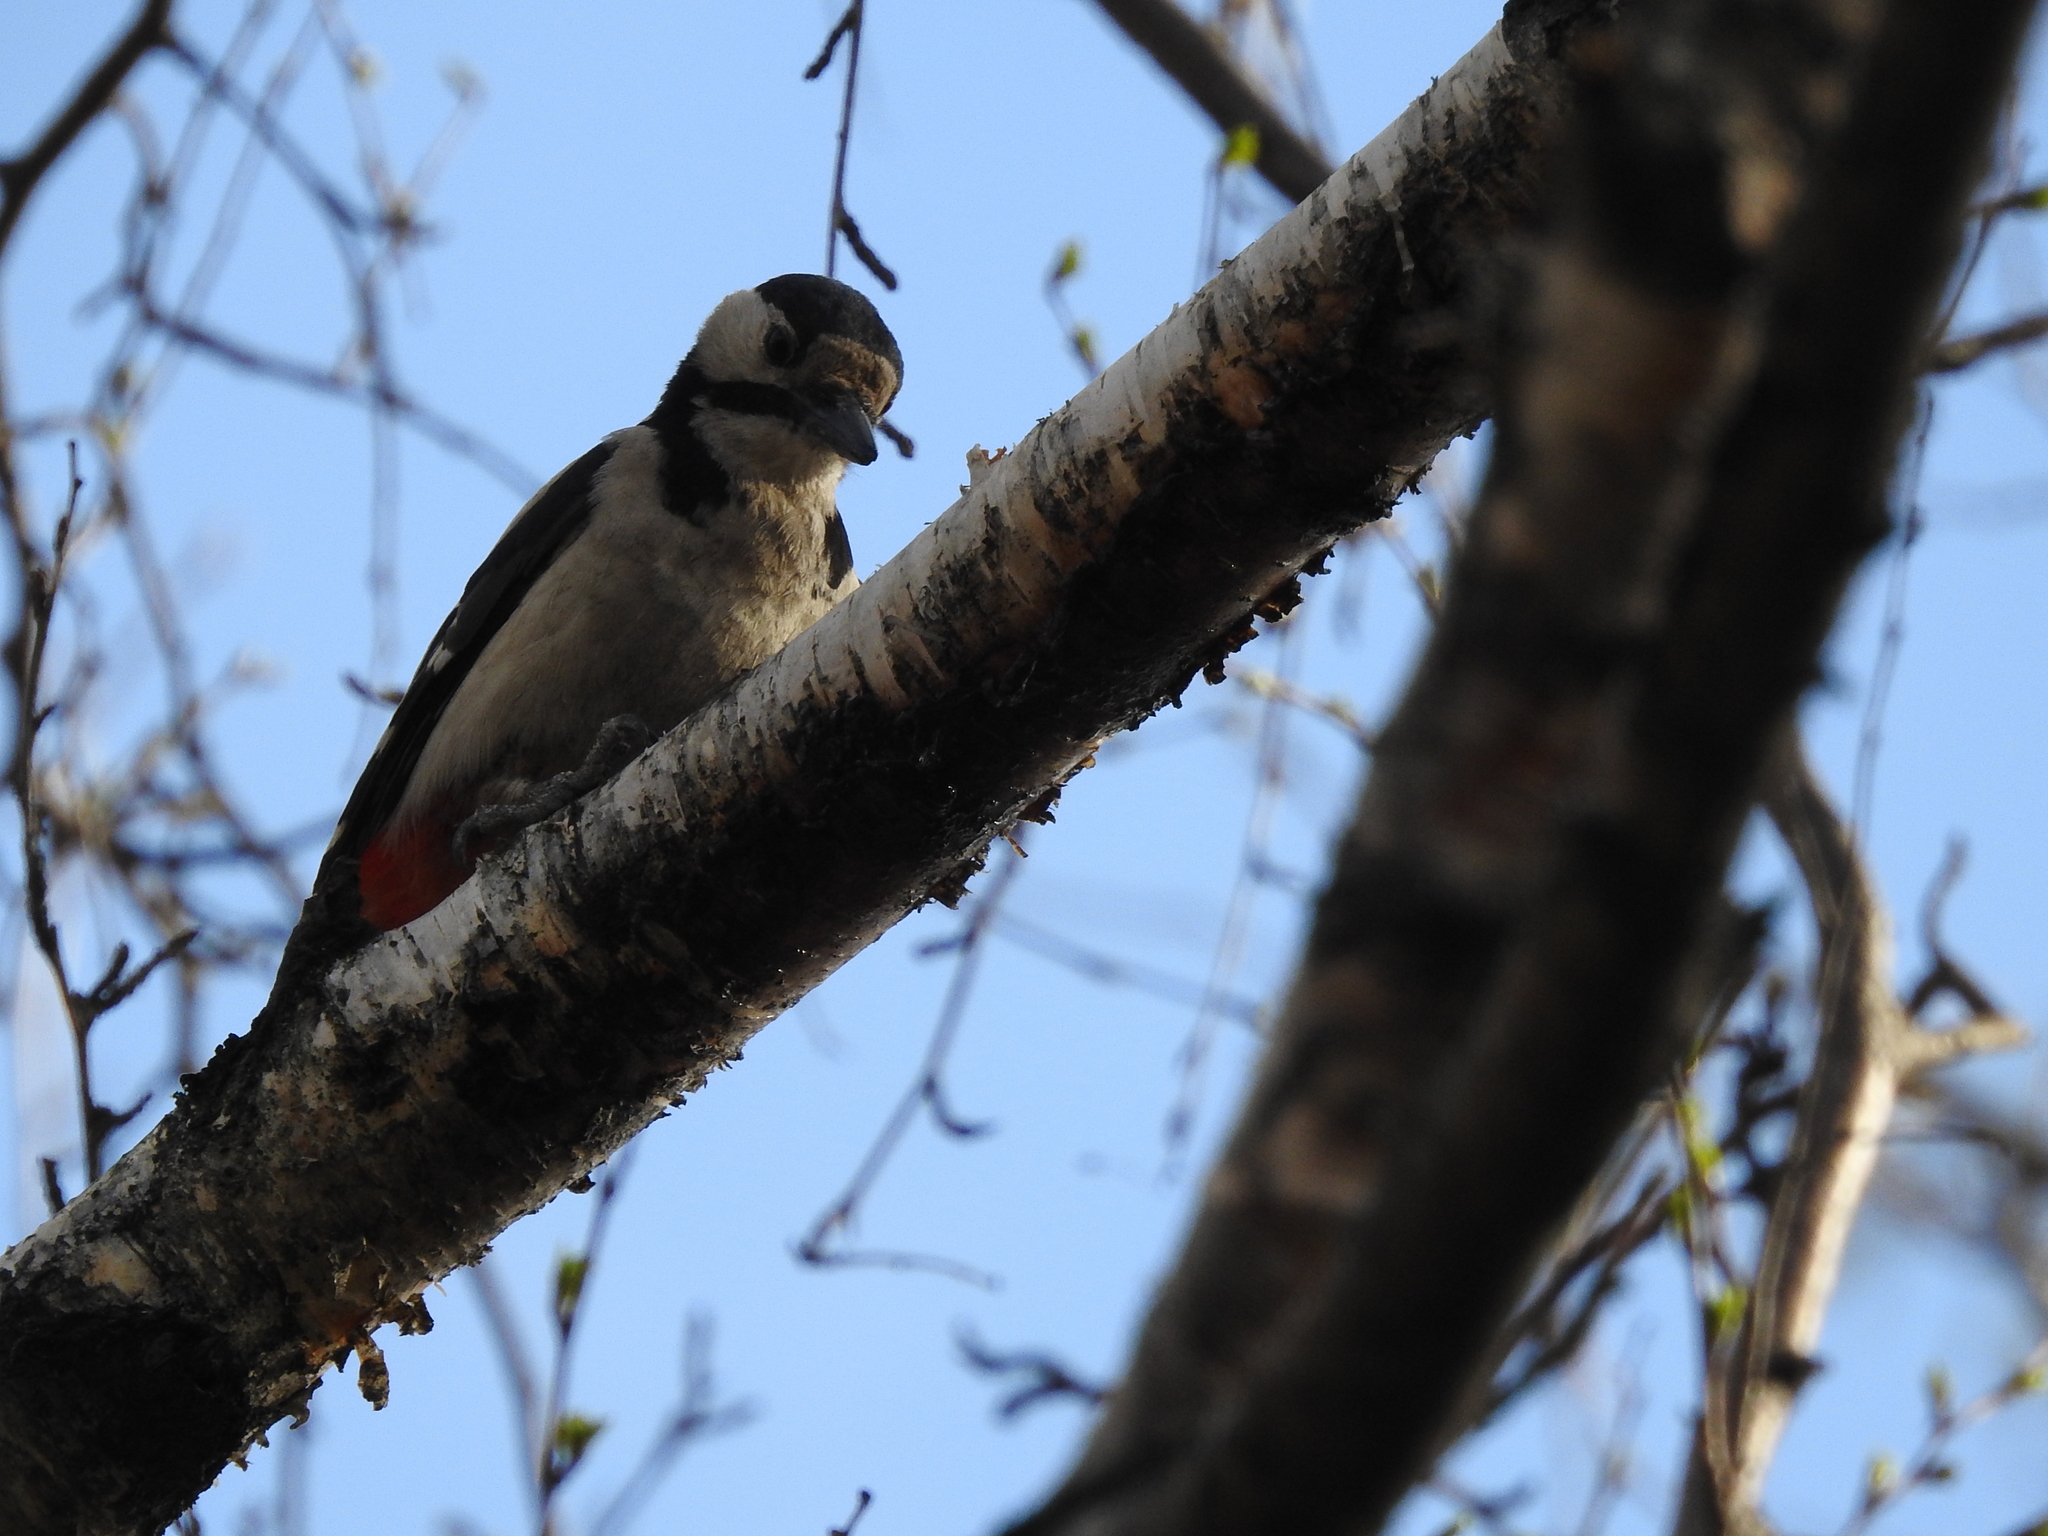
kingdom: Animalia
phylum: Chordata
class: Aves
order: Piciformes
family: Picidae
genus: Dendrocopos
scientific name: Dendrocopos major
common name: Great spotted woodpecker
